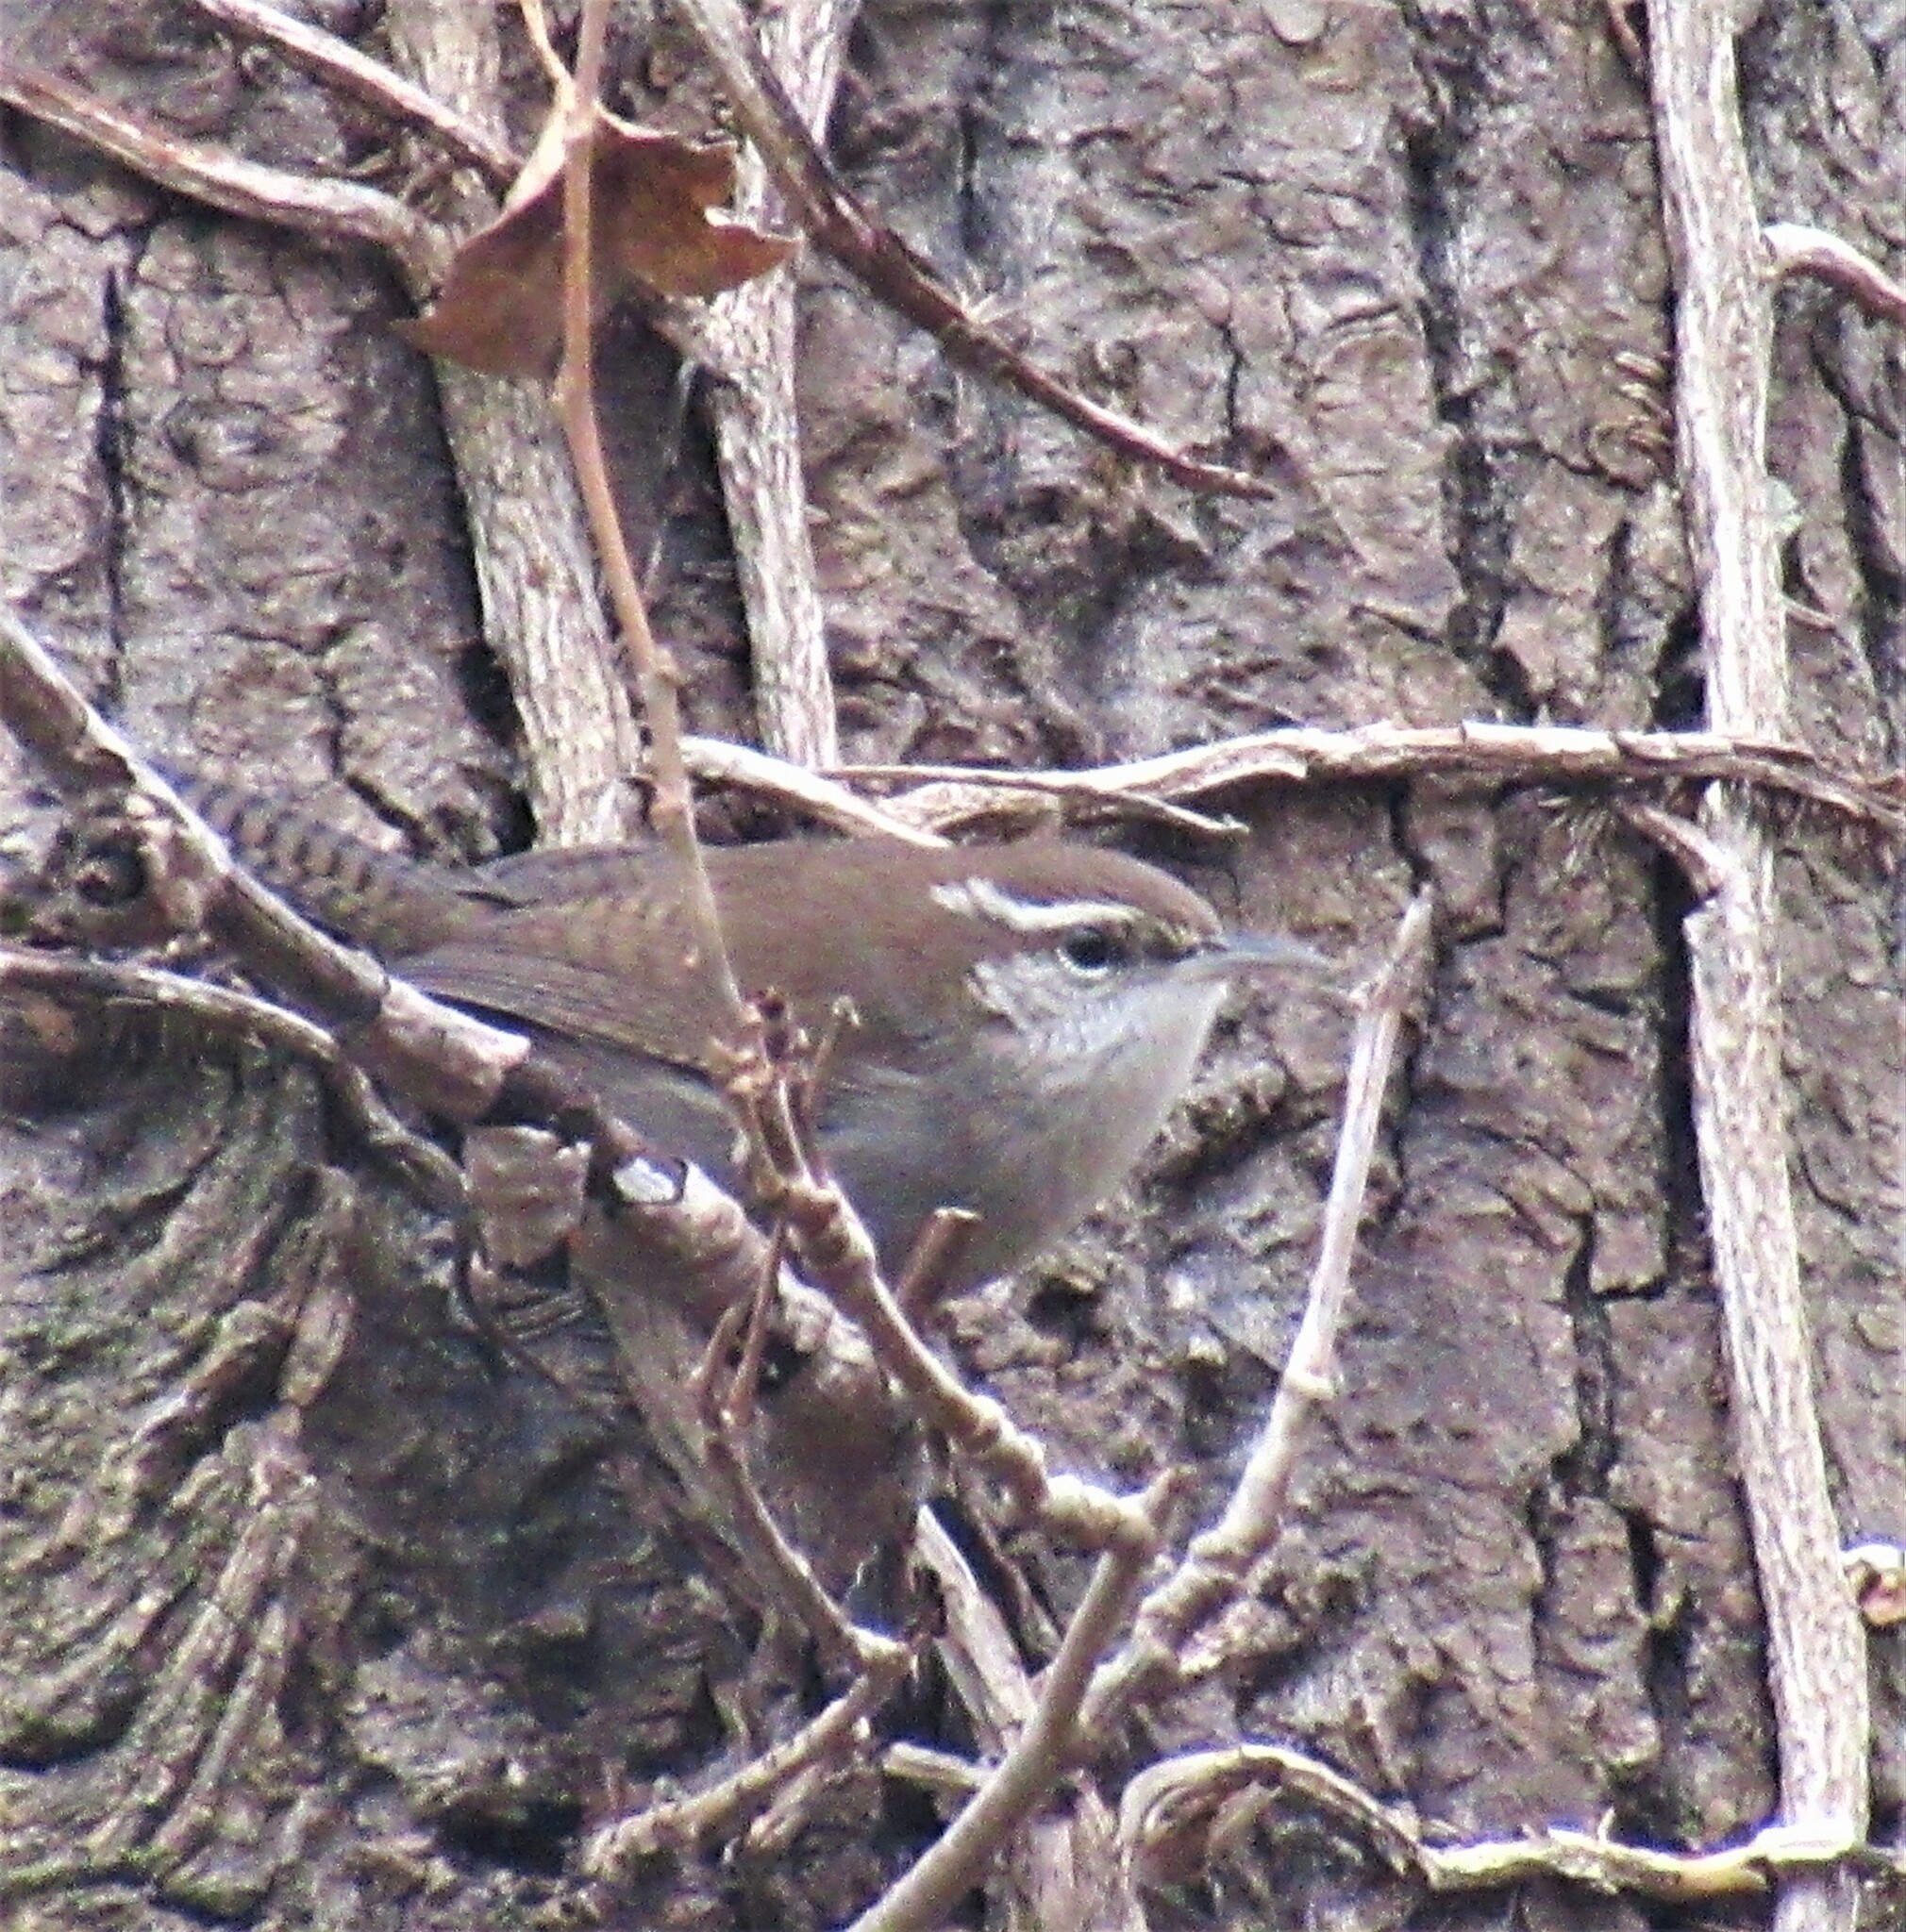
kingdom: Animalia
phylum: Chordata
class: Aves
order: Passeriformes
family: Troglodytidae
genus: Thryomanes
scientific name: Thryomanes bewickii
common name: Bewick's wren
